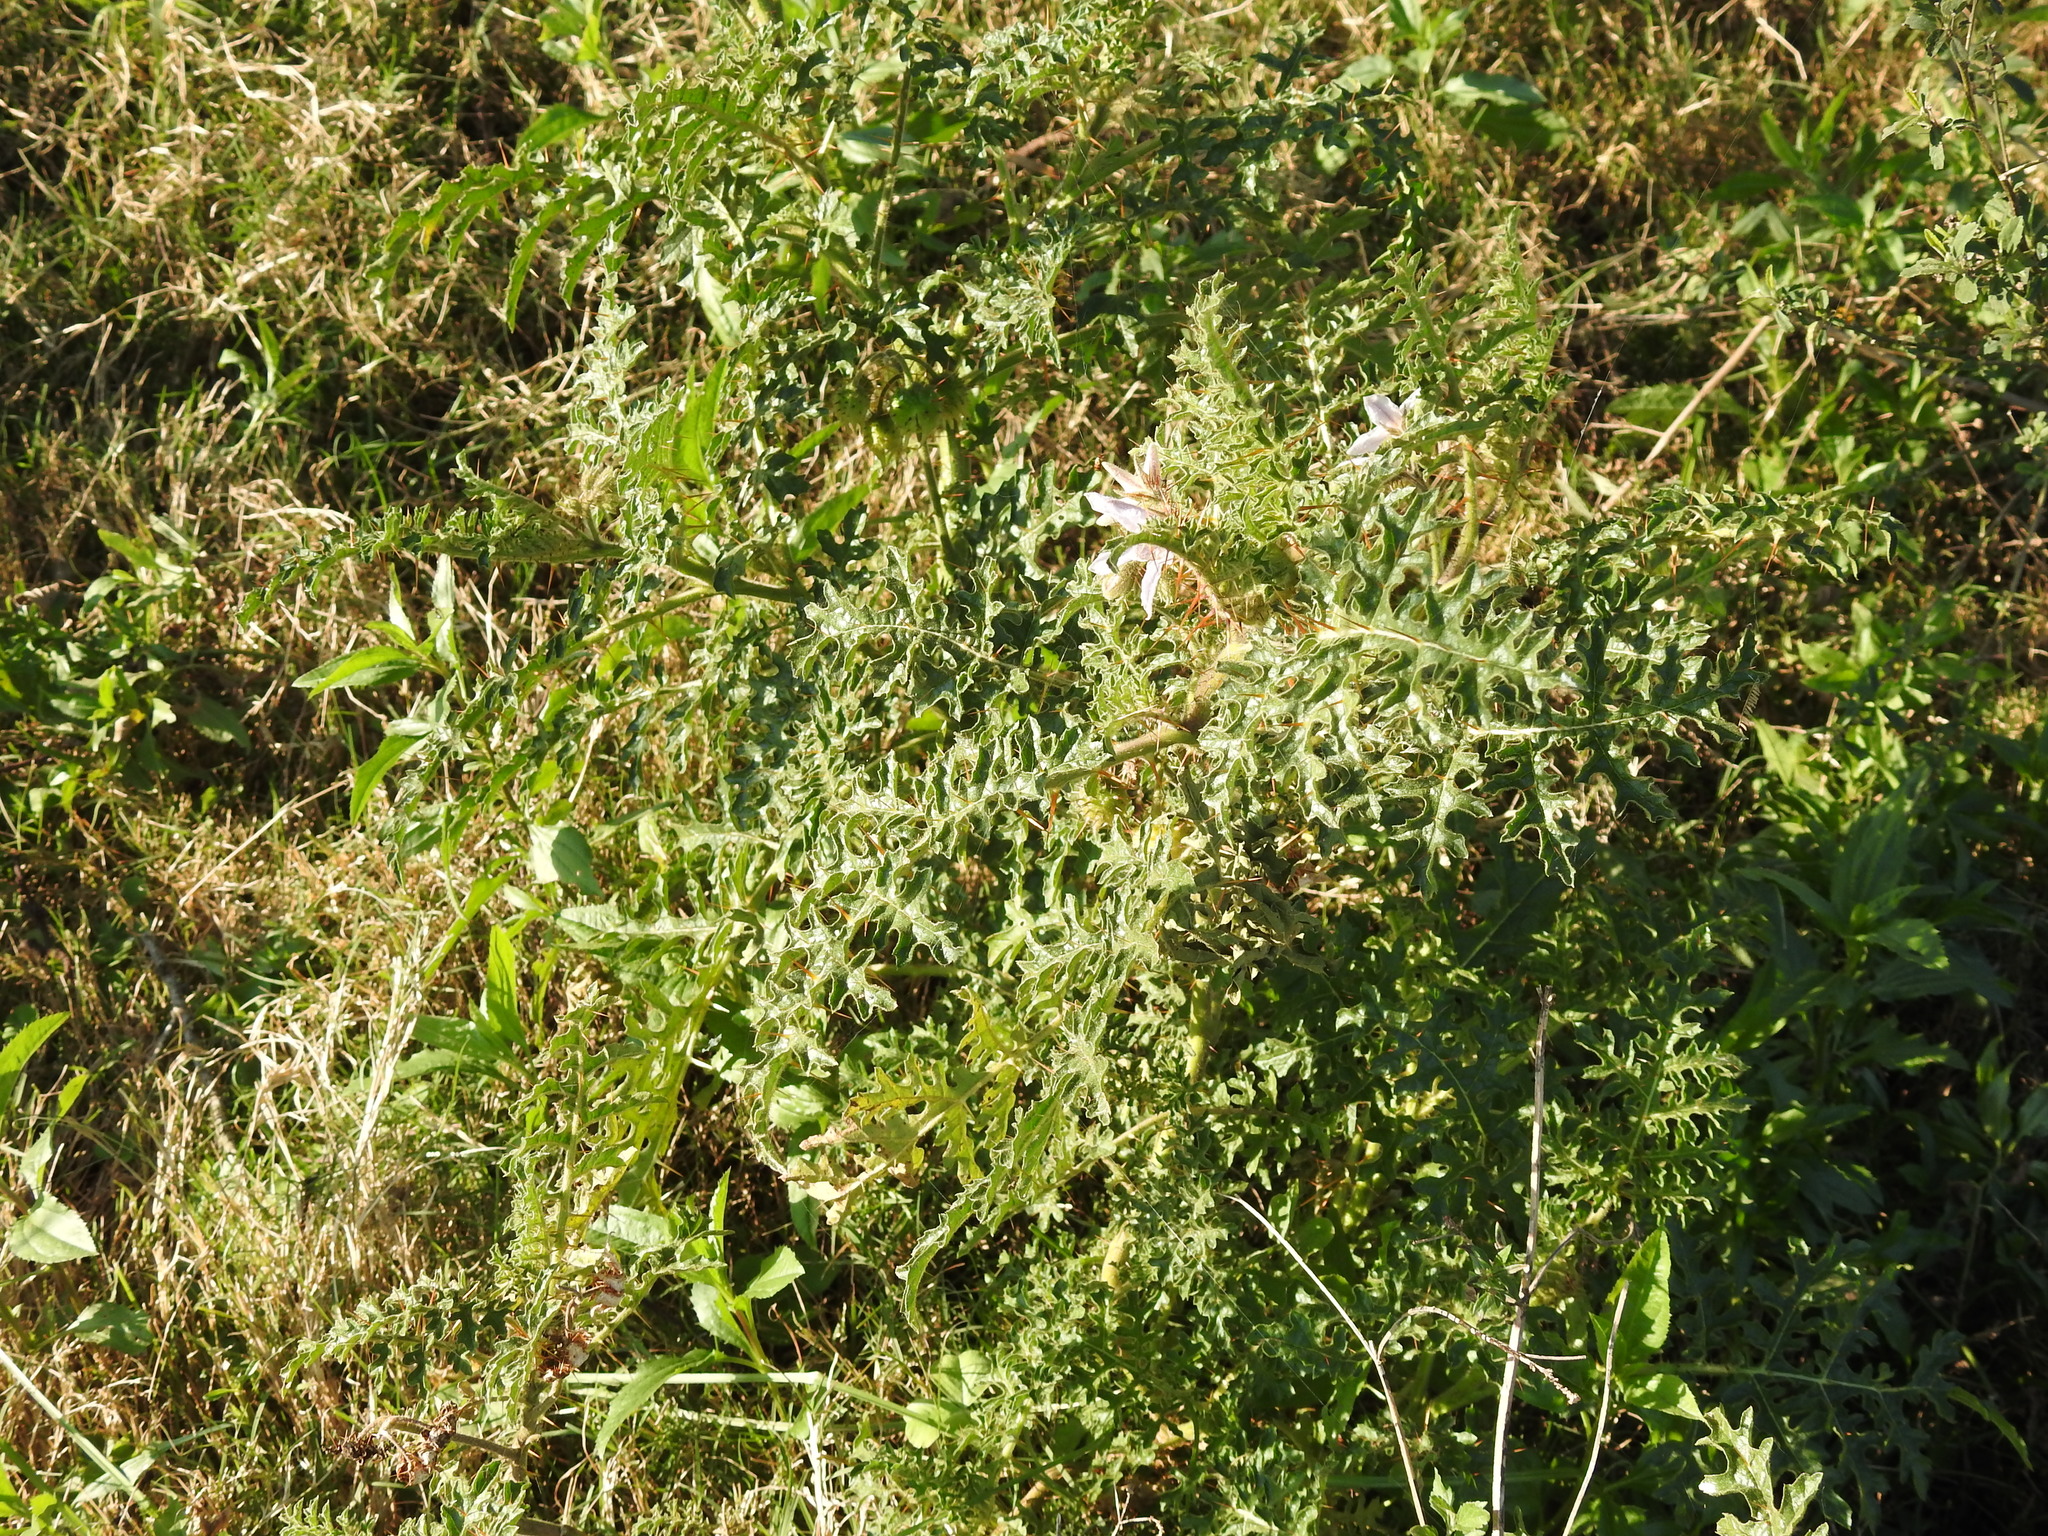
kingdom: Plantae
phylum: Tracheophyta
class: Magnoliopsida
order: Solanales
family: Solanaceae
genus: Solanum
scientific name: Solanum sisymbriifolium
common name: Red buffalo-bur
